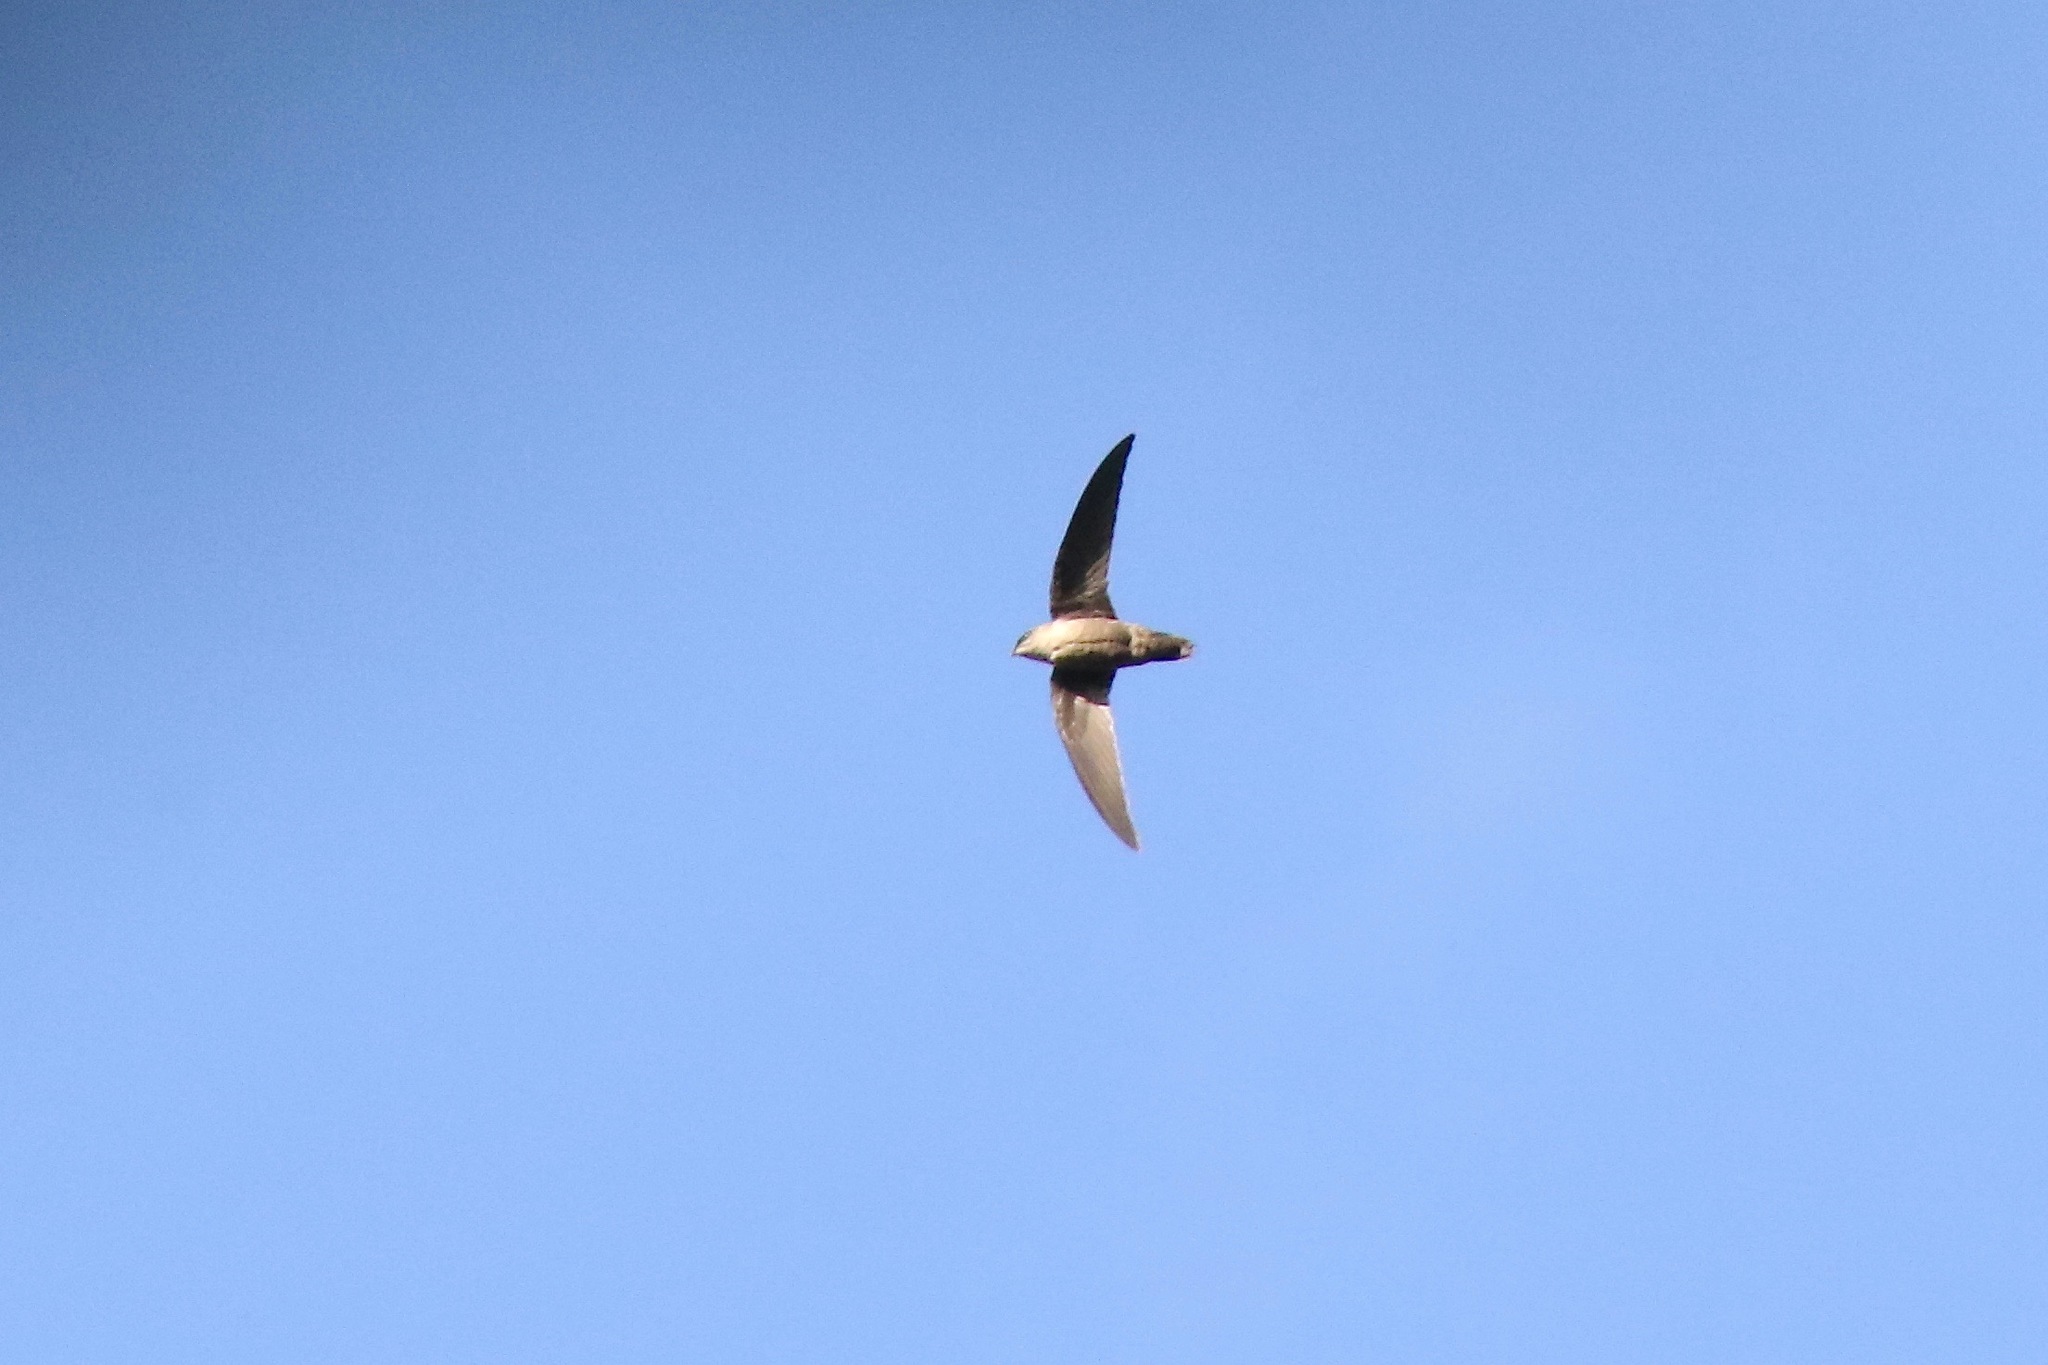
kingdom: Animalia
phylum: Chordata
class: Aves
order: Apodiformes
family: Apodidae
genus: Chaetura
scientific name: Chaetura pelagica
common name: Chimney swift
